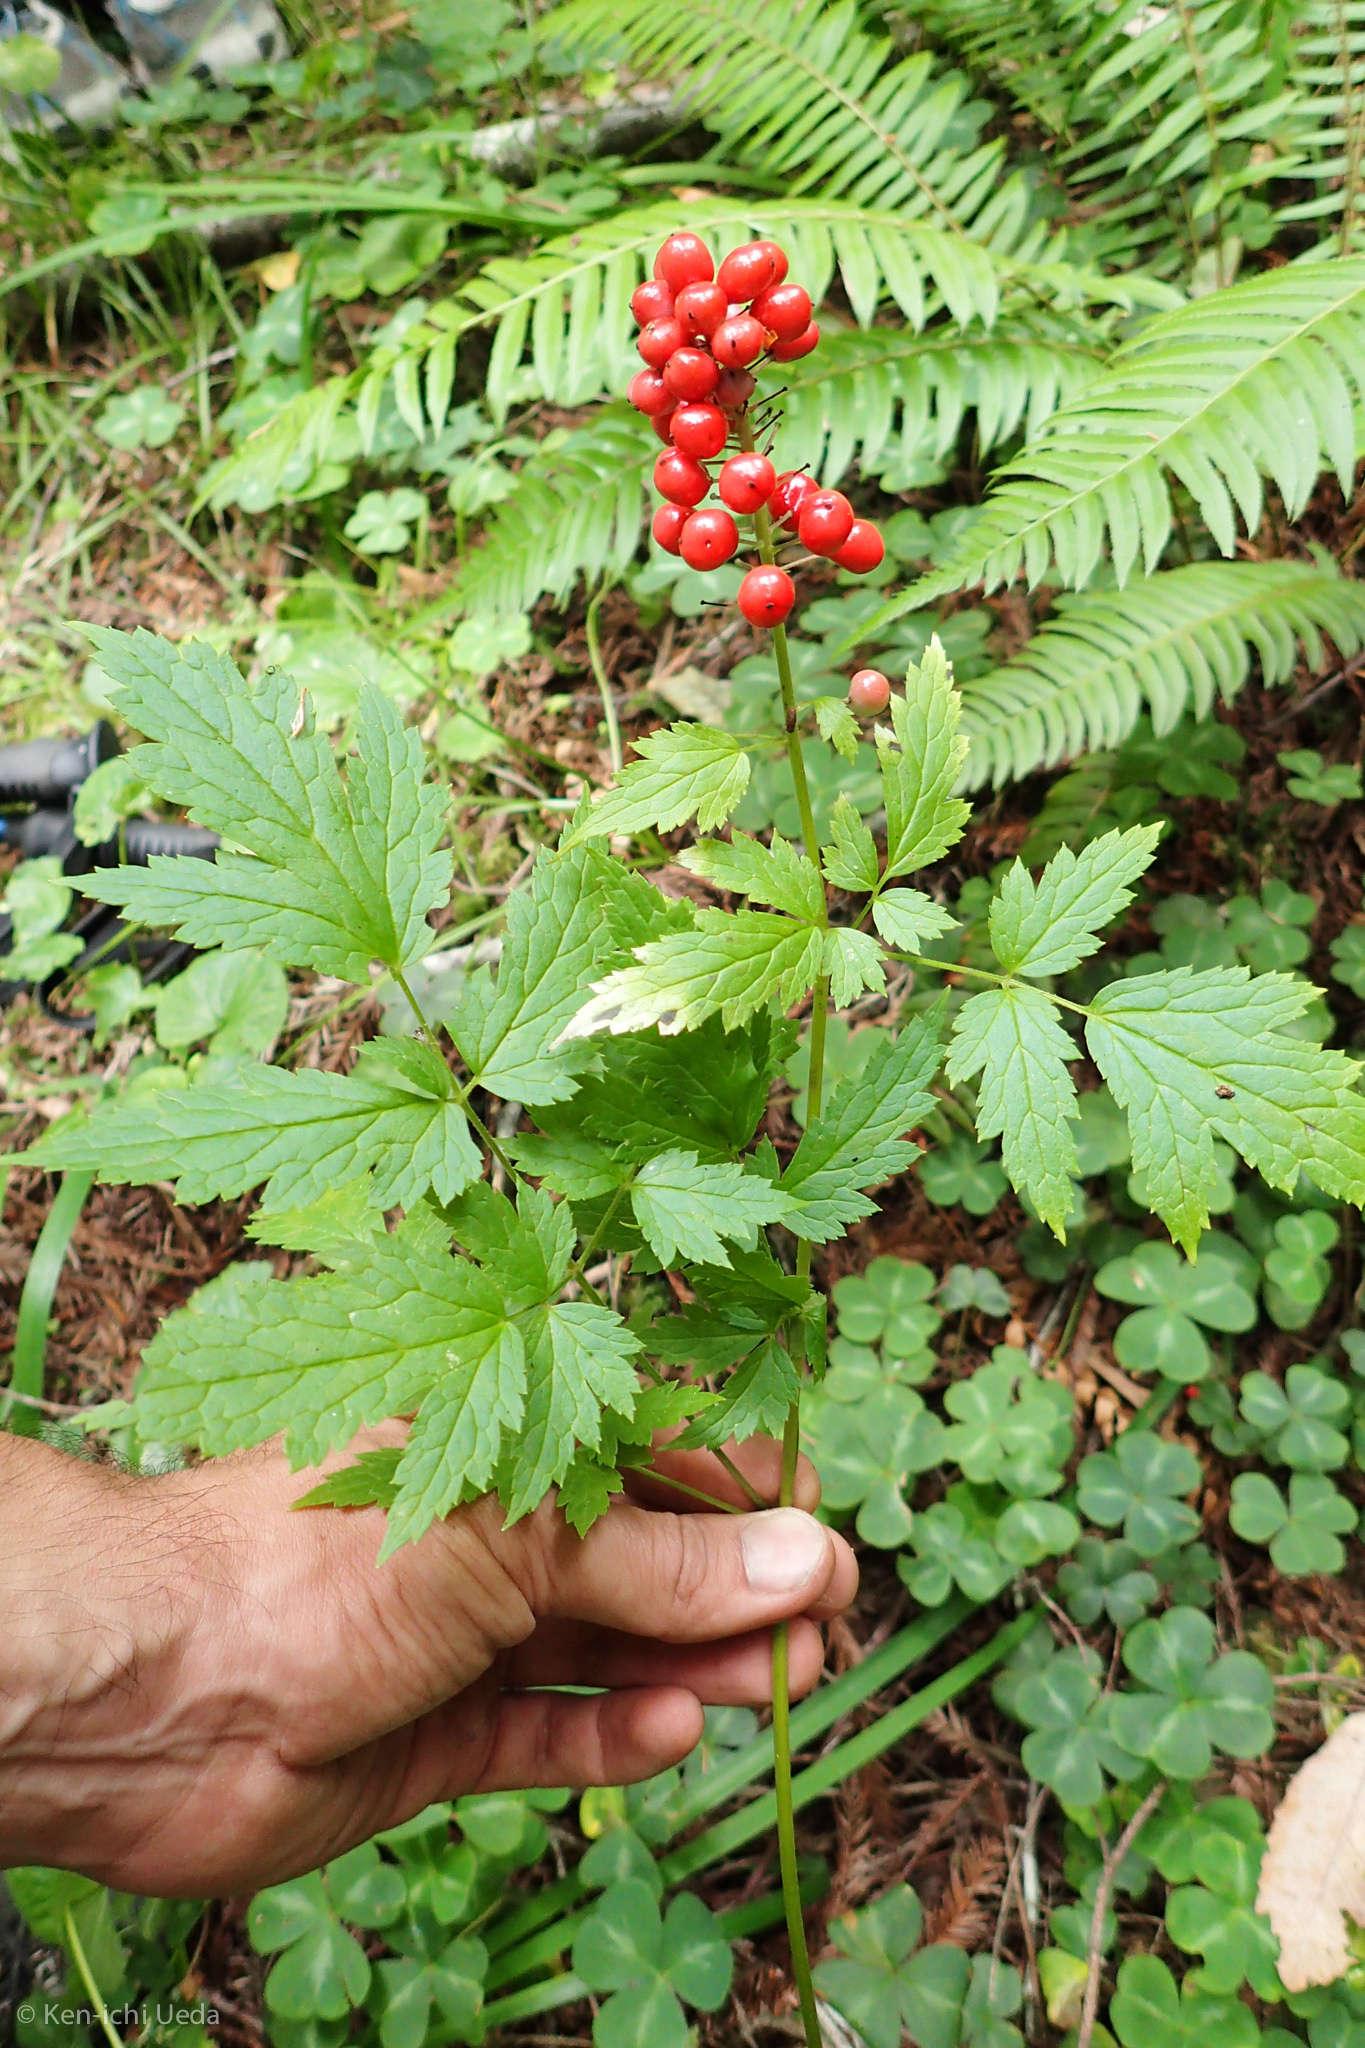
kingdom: Plantae
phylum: Tracheophyta
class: Magnoliopsida
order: Ranunculales
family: Ranunculaceae
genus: Actaea
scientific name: Actaea rubra
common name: Red baneberry
